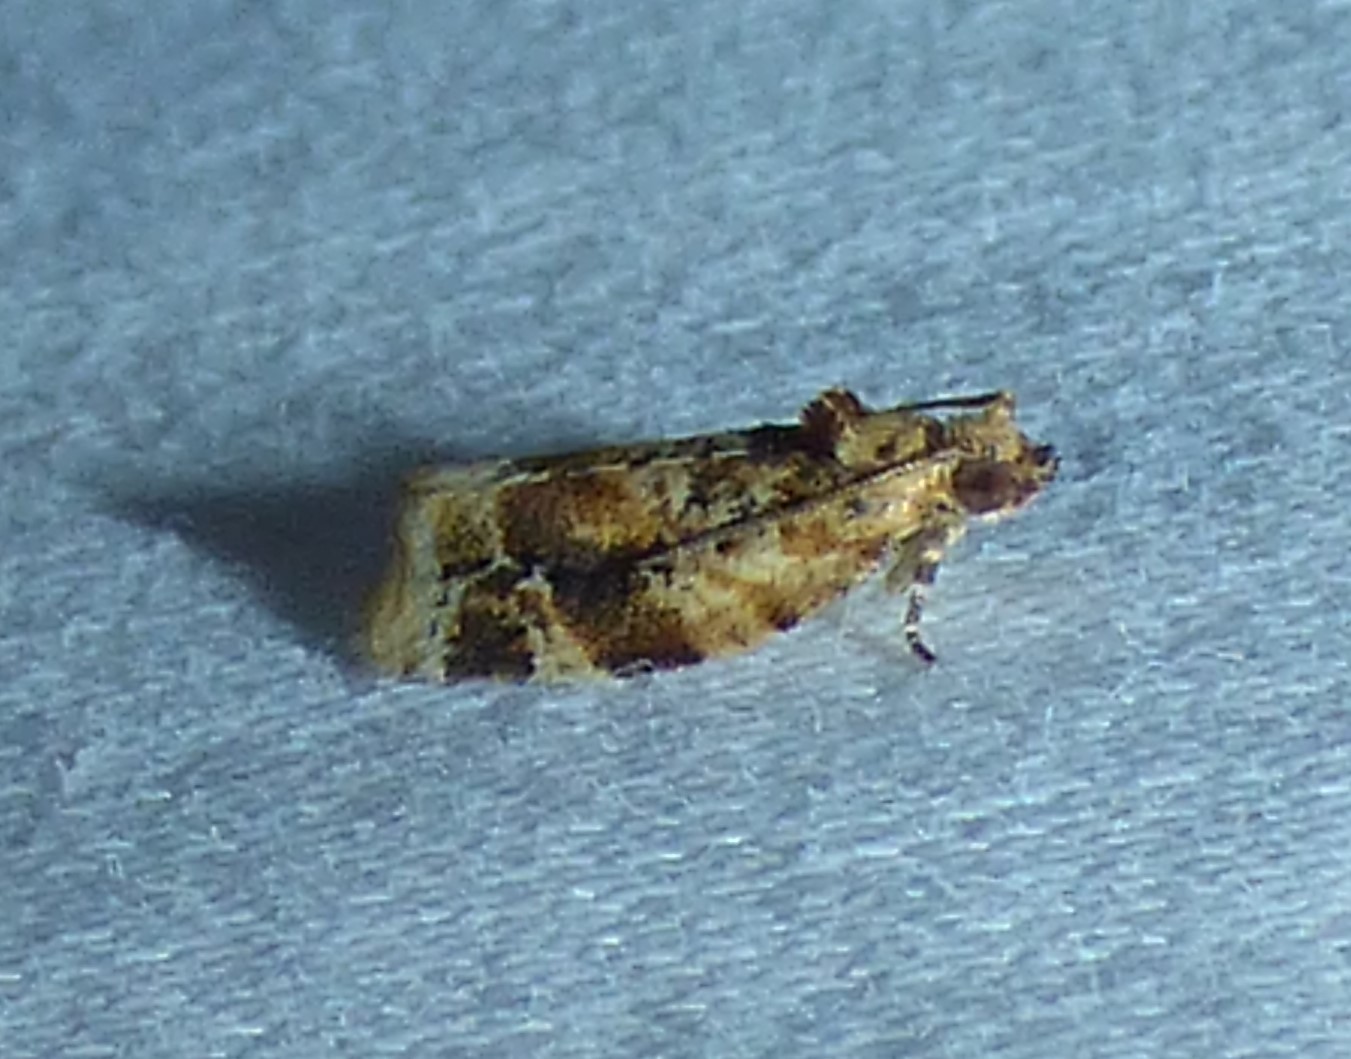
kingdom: Animalia
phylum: Arthropoda
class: Insecta
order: Lepidoptera
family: Tortricidae
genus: Argyrotaenia
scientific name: Argyrotaenia velutinana
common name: Red-banded leafroller moth
